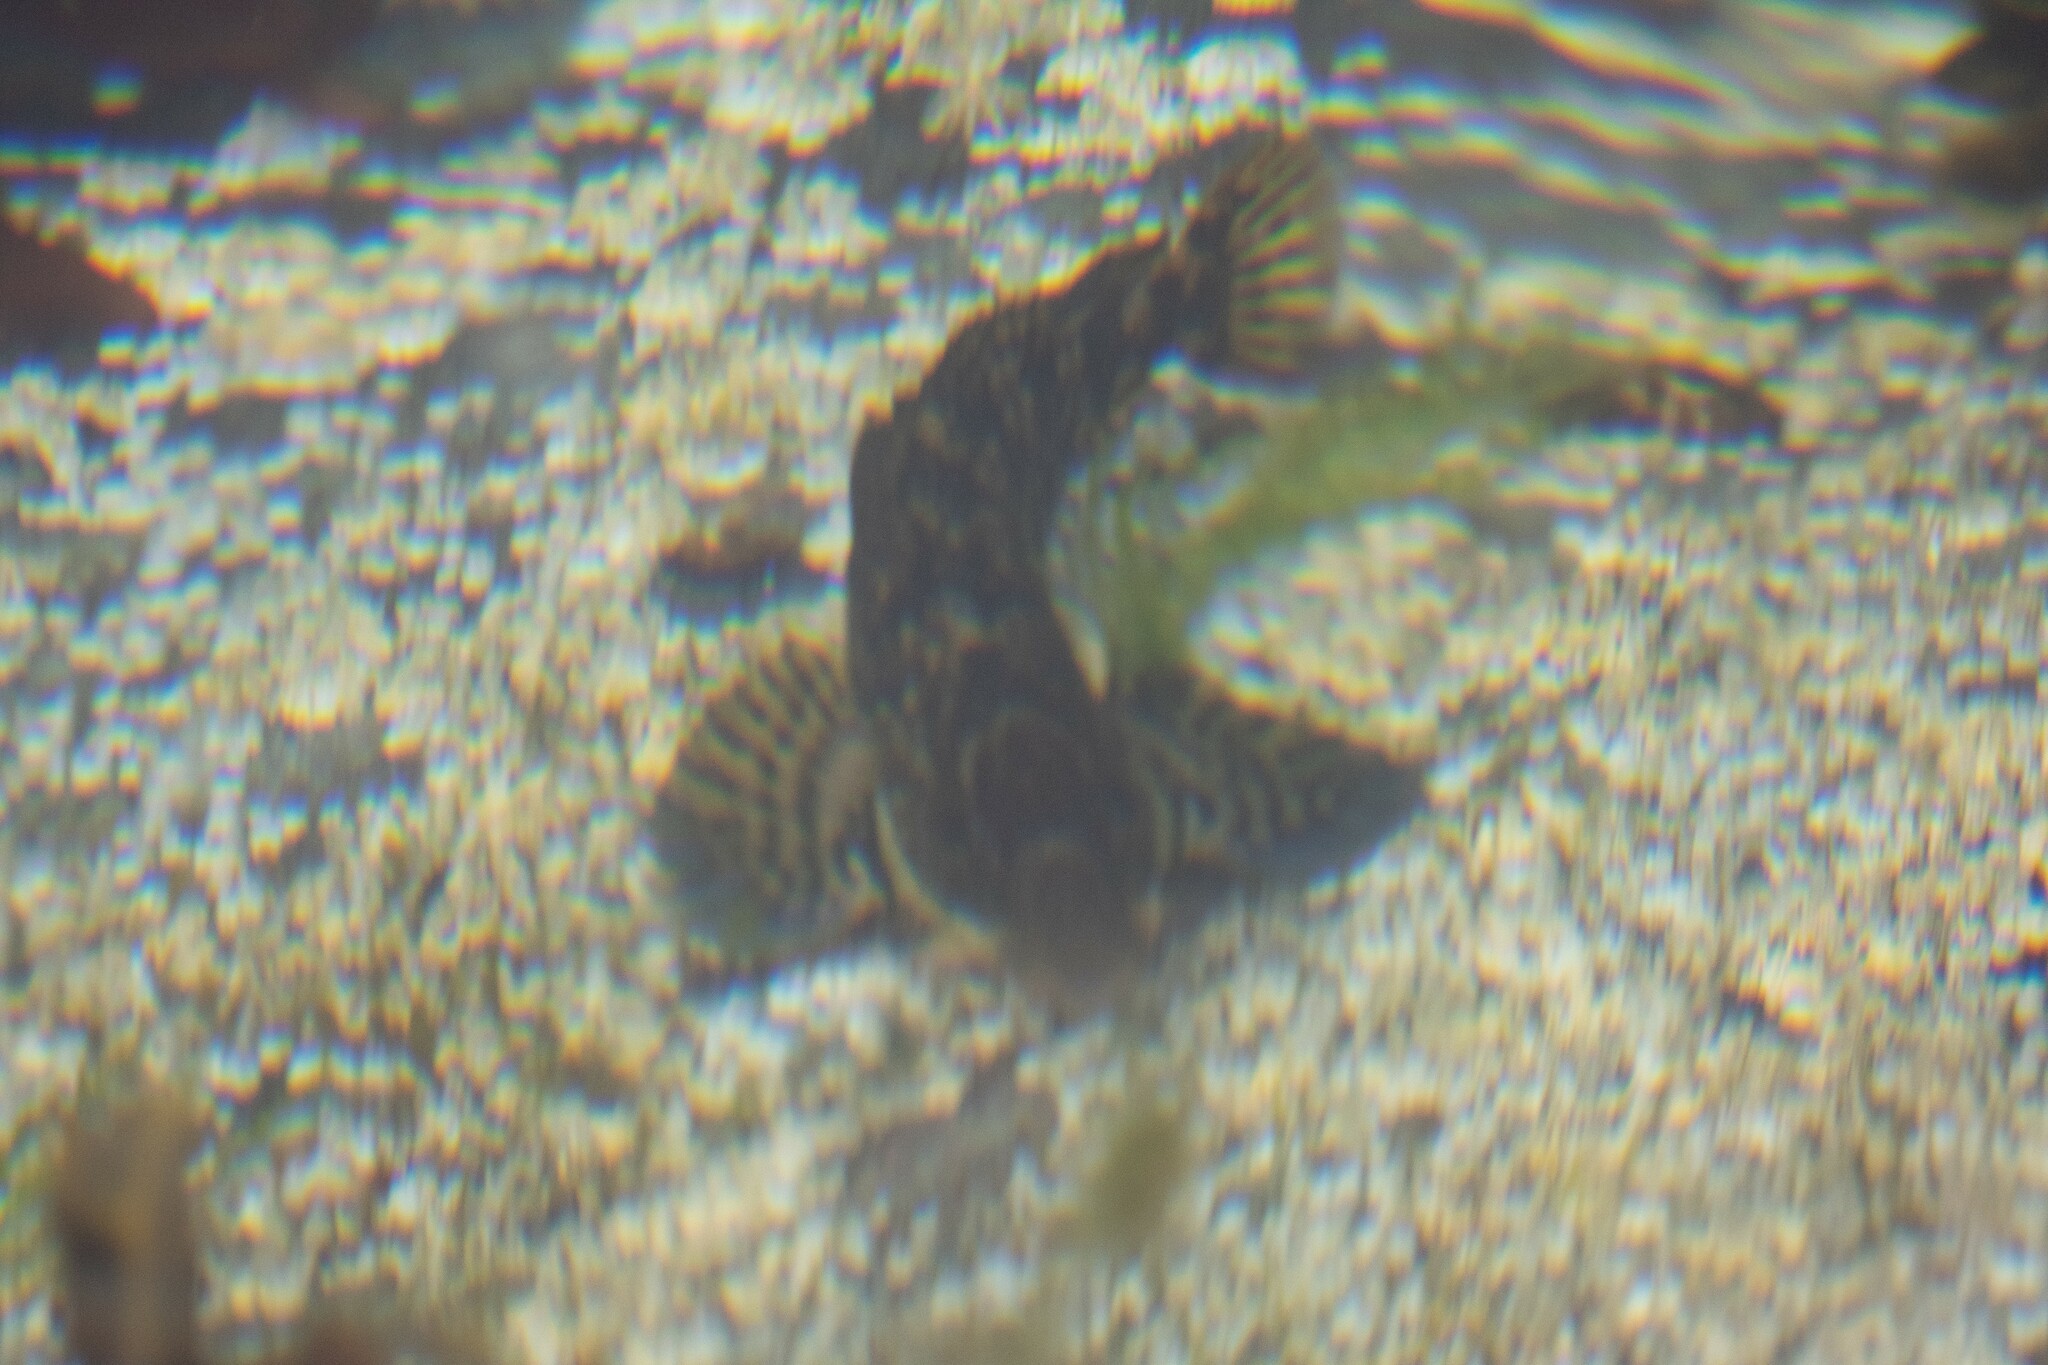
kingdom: Animalia
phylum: Chordata
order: Perciformes
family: Blenniidae
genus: Lipophrys
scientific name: Lipophrys pholis
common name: Shanny
